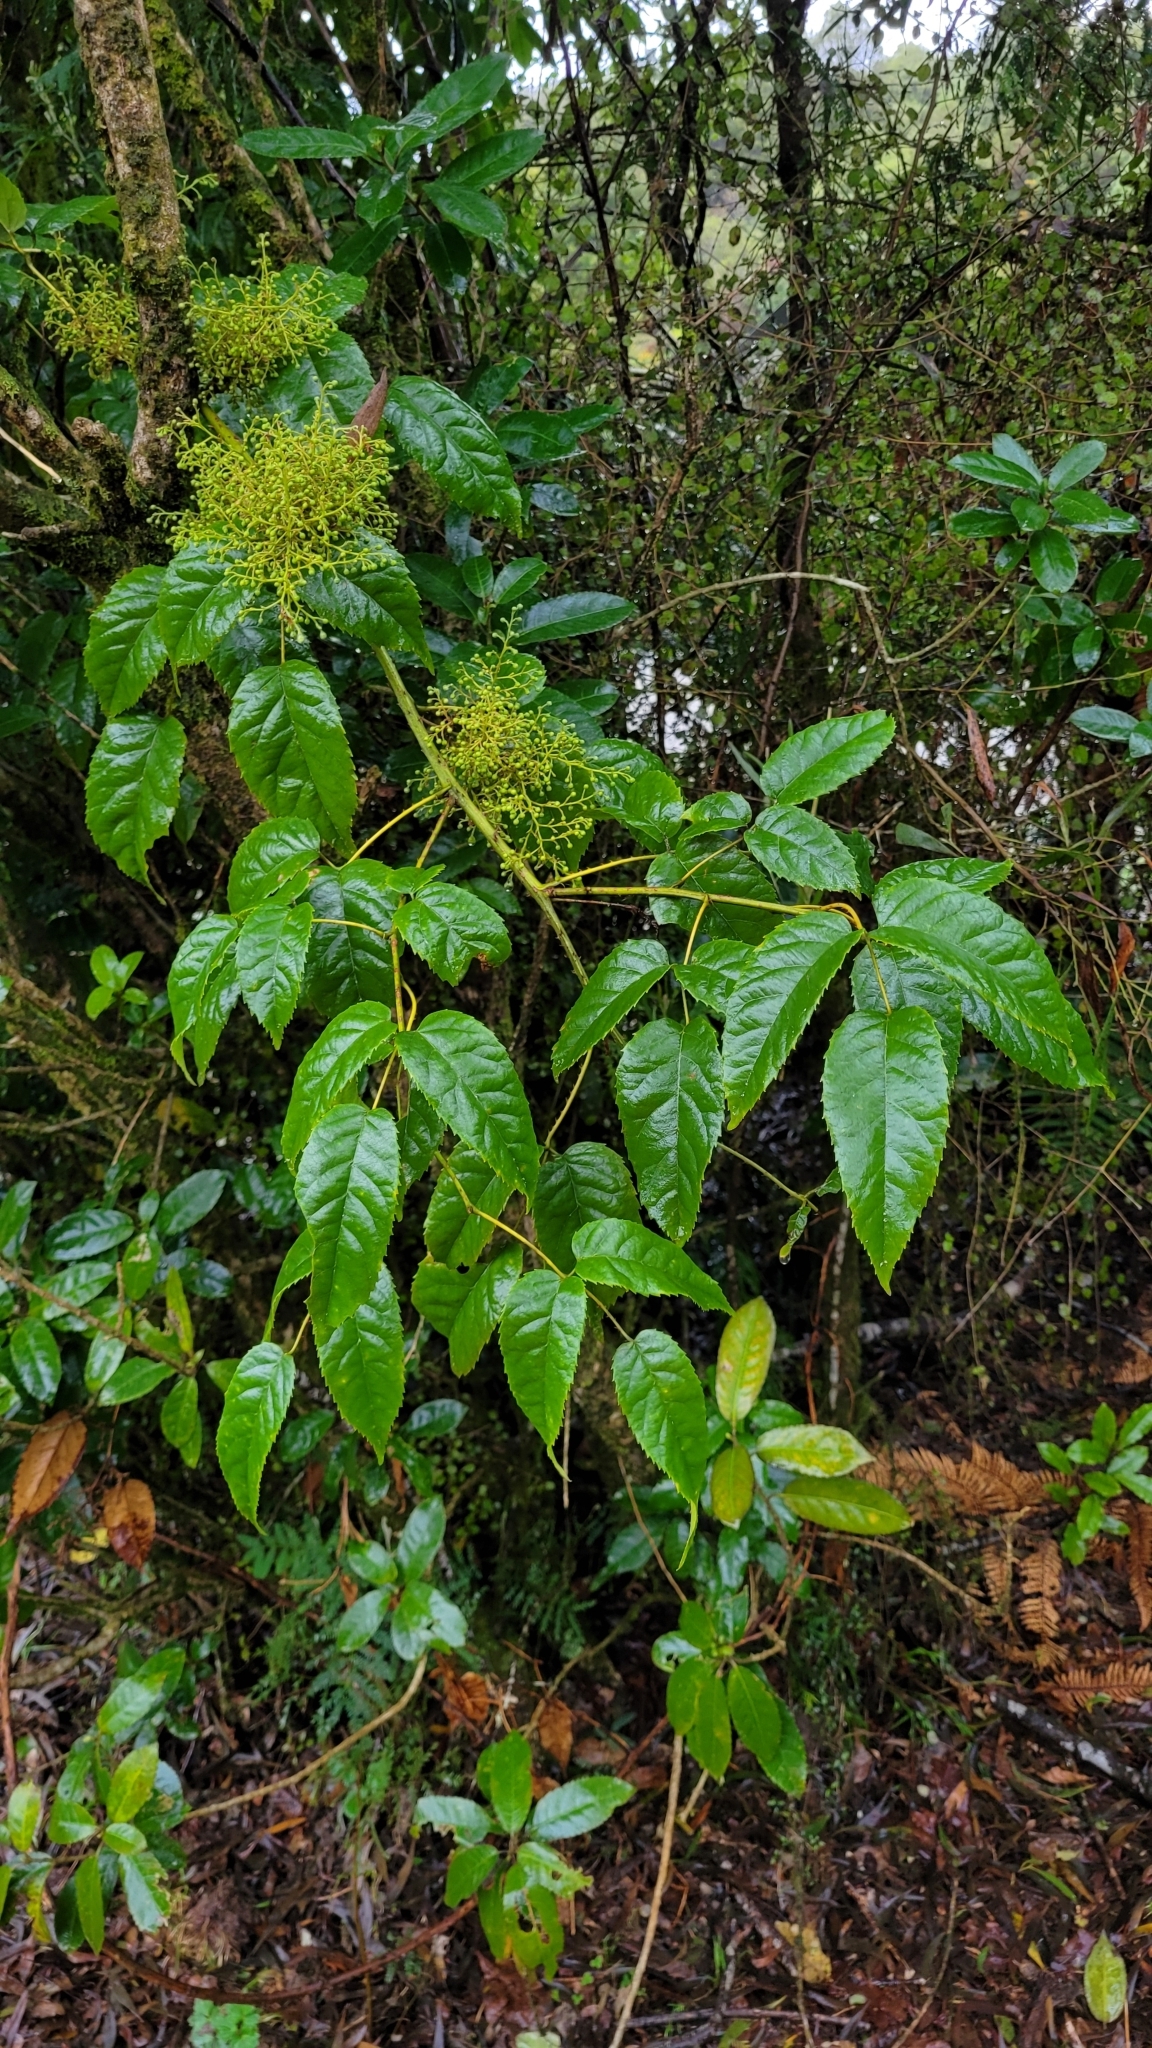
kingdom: Plantae
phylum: Tracheophyta
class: Magnoliopsida
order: Rosales
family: Rosaceae
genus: Rubus
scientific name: Rubus cissoides
